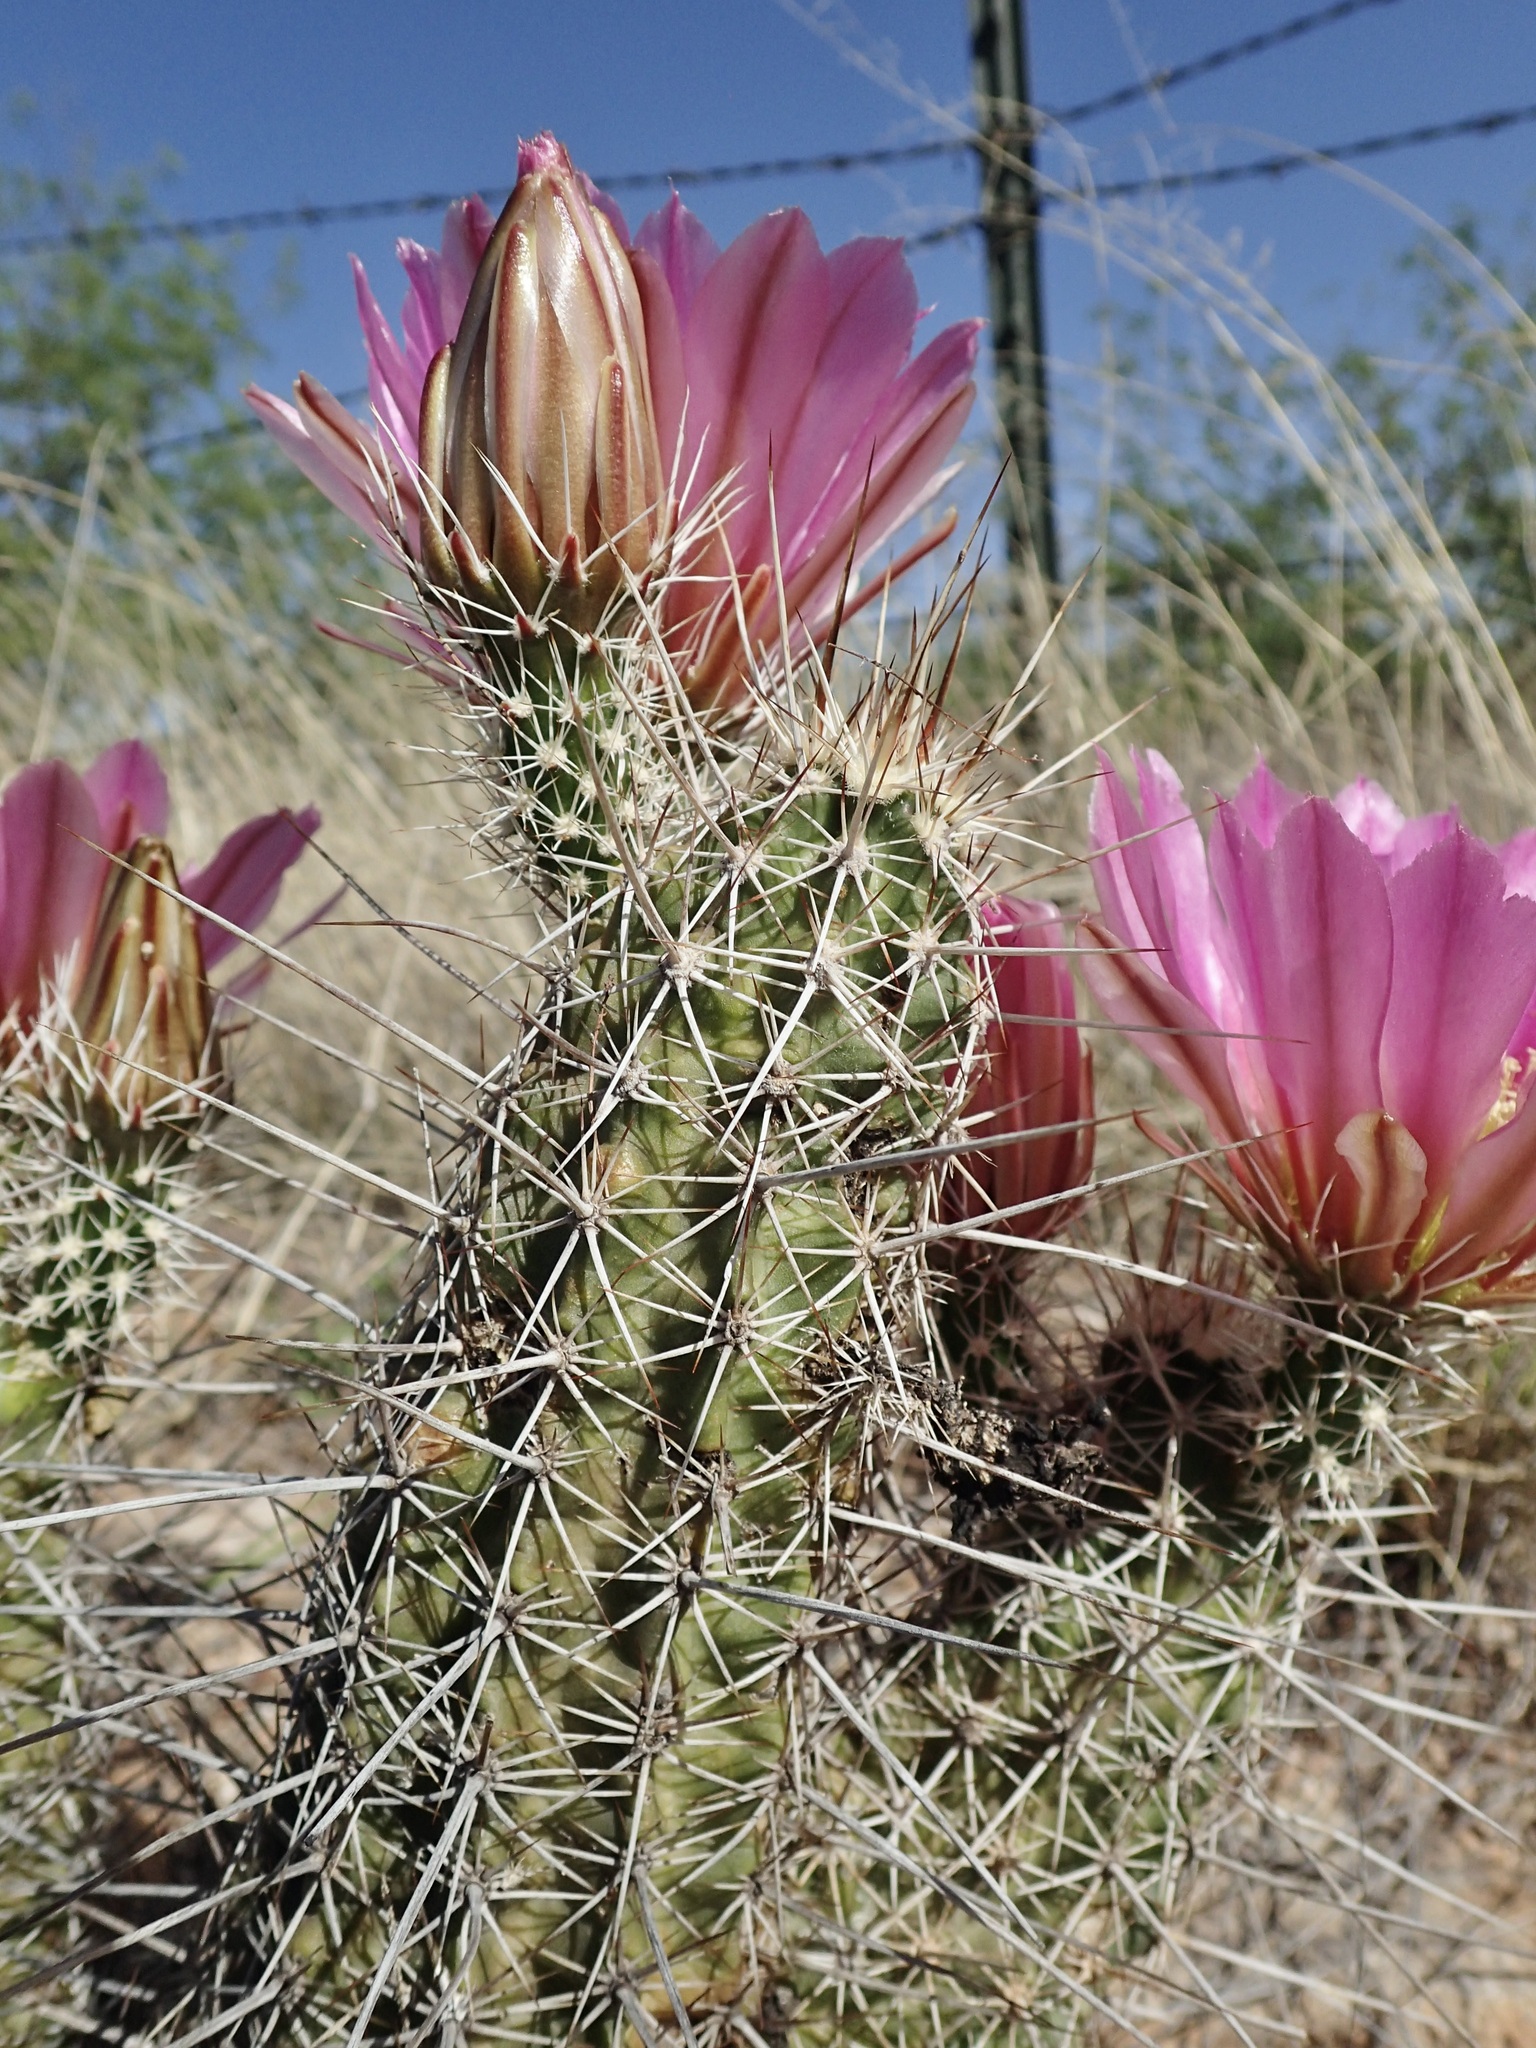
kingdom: Plantae
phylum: Tracheophyta
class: Magnoliopsida
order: Caryophyllales
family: Cactaceae
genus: Echinocereus
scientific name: Echinocereus fasciculatus
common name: Bundle hedgehog
